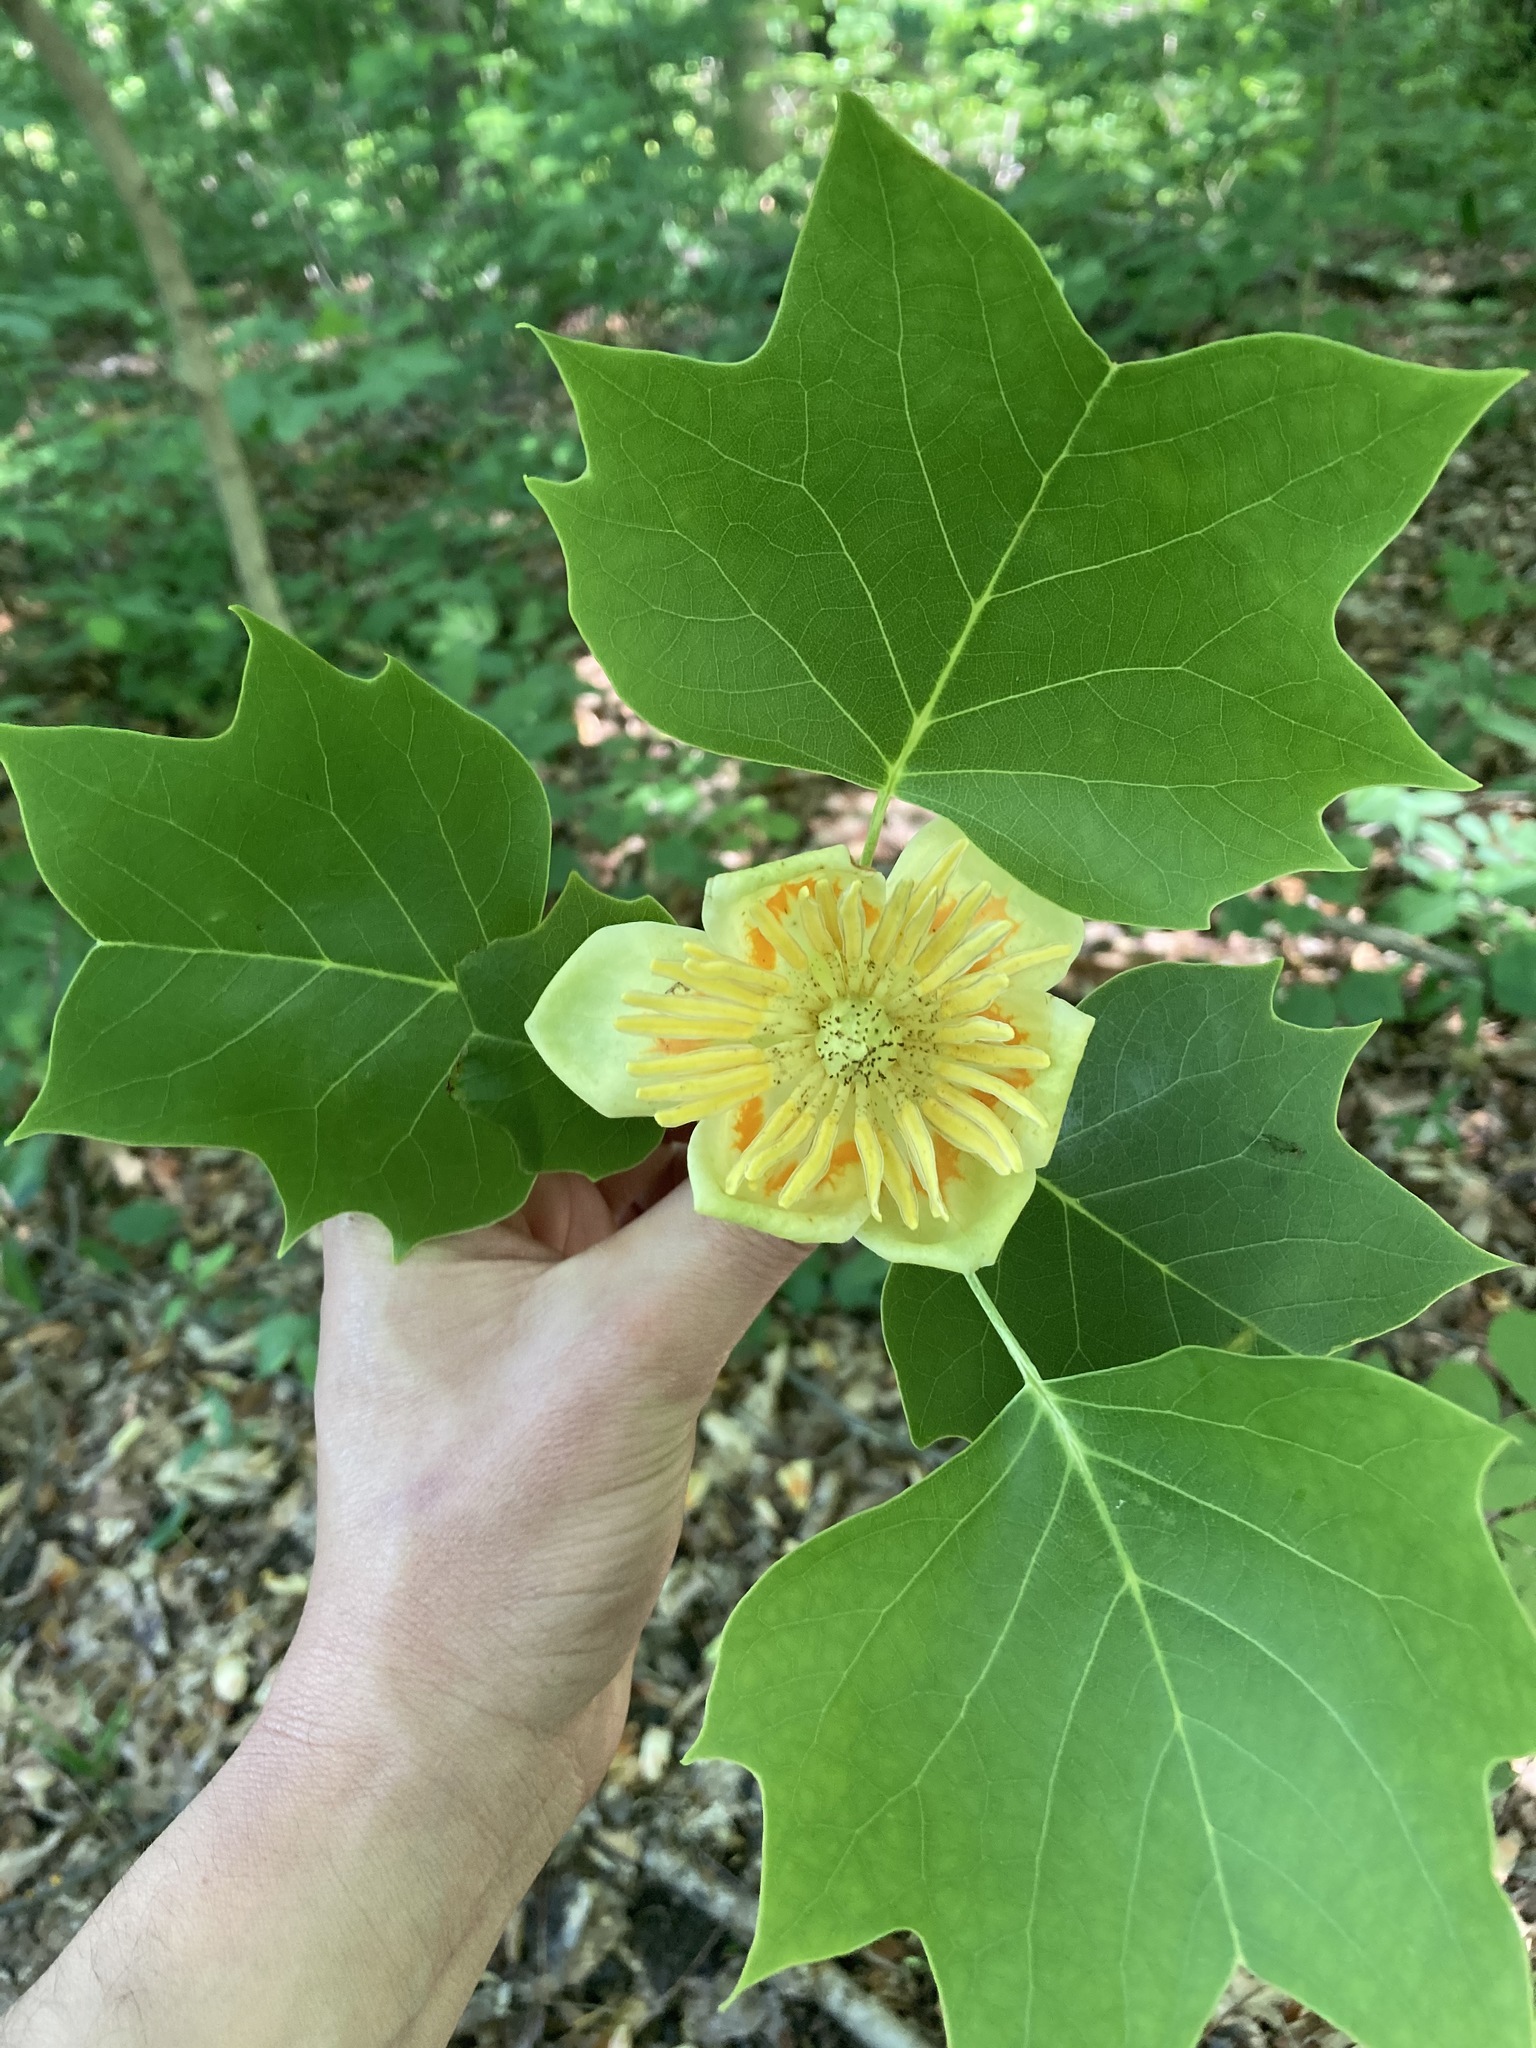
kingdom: Plantae
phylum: Tracheophyta
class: Magnoliopsida
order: Magnoliales
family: Magnoliaceae
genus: Liriodendron
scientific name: Liriodendron tulipifera
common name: Tulip tree
